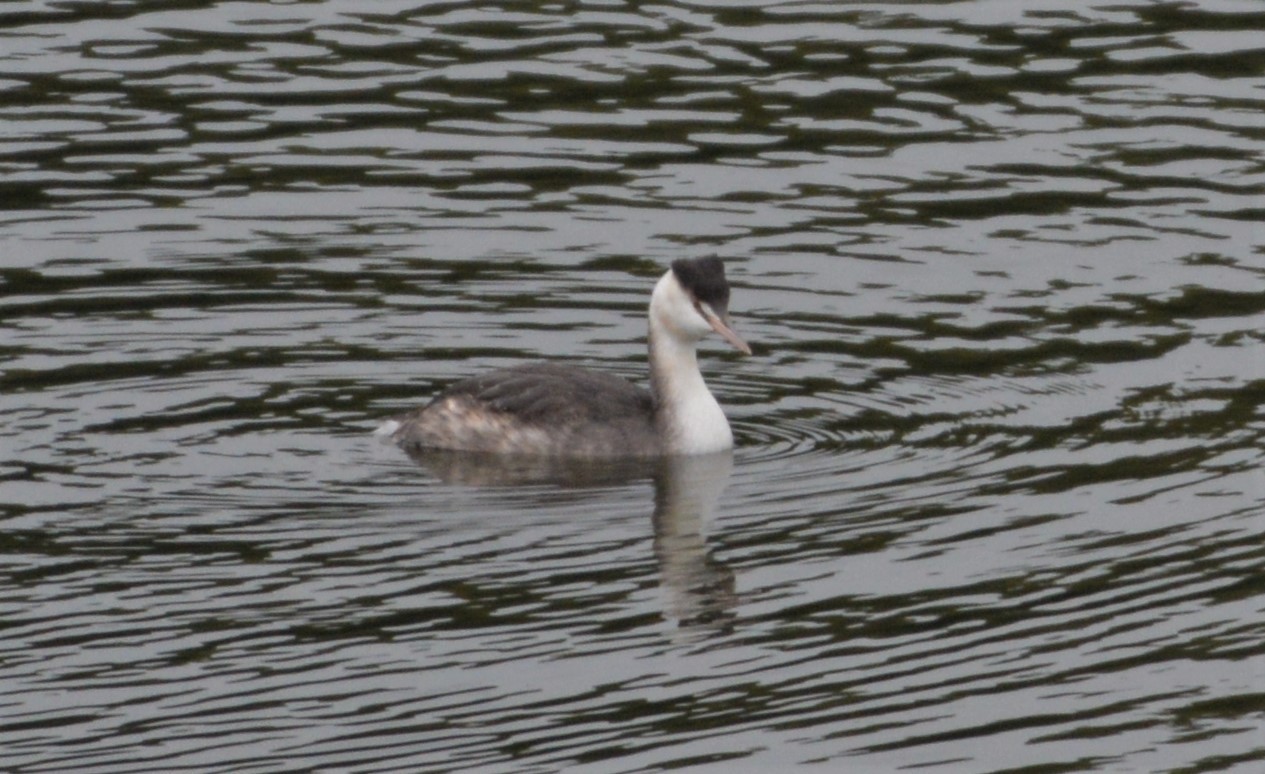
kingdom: Animalia
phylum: Chordata
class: Aves
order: Podicipediformes
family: Podicipedidae
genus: Podiceps
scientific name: Podiceps cristatus
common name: Great crested grebe
